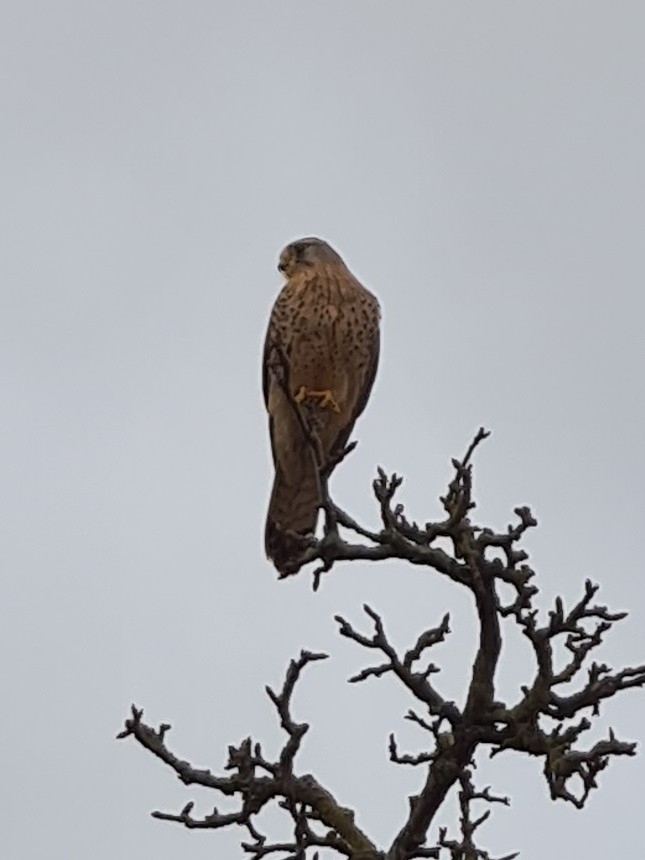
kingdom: Animalia
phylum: Chordata
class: Aves
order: Falconiformes
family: Falconidae
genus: Falco
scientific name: Falco tinnunculus
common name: Common kestrel
